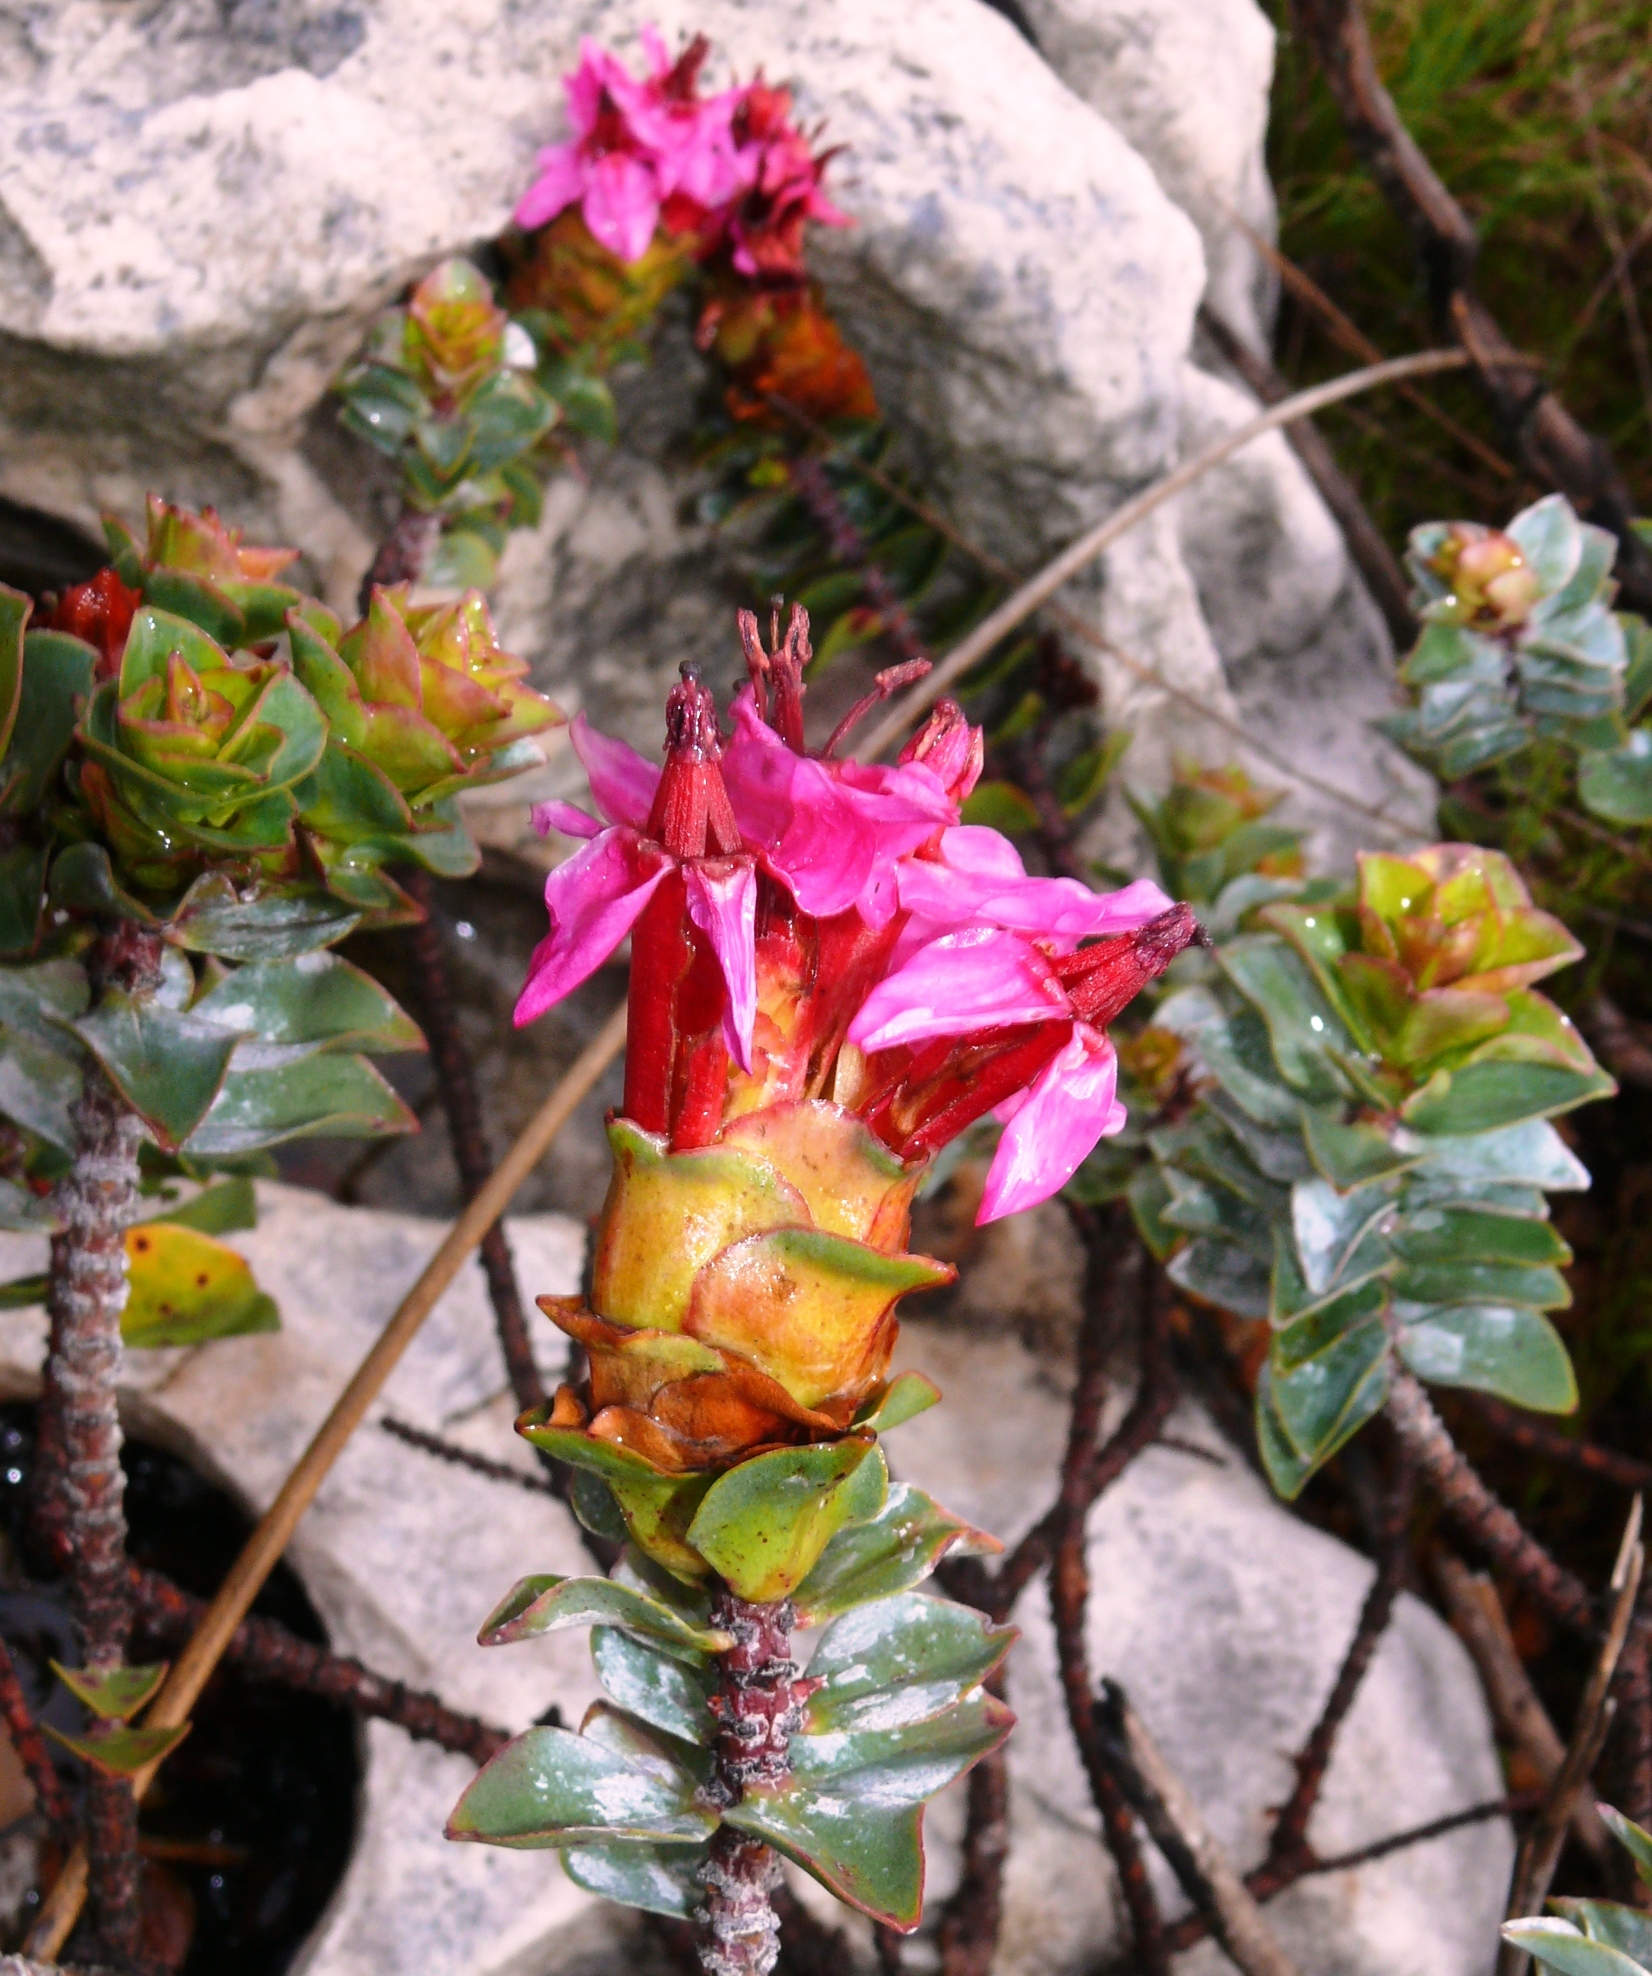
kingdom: Plantae
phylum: Tracheophyta
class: Magnoliopsida
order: Myrtales
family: Penaeaceae
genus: Saltera
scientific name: Saltera sarcocolla
